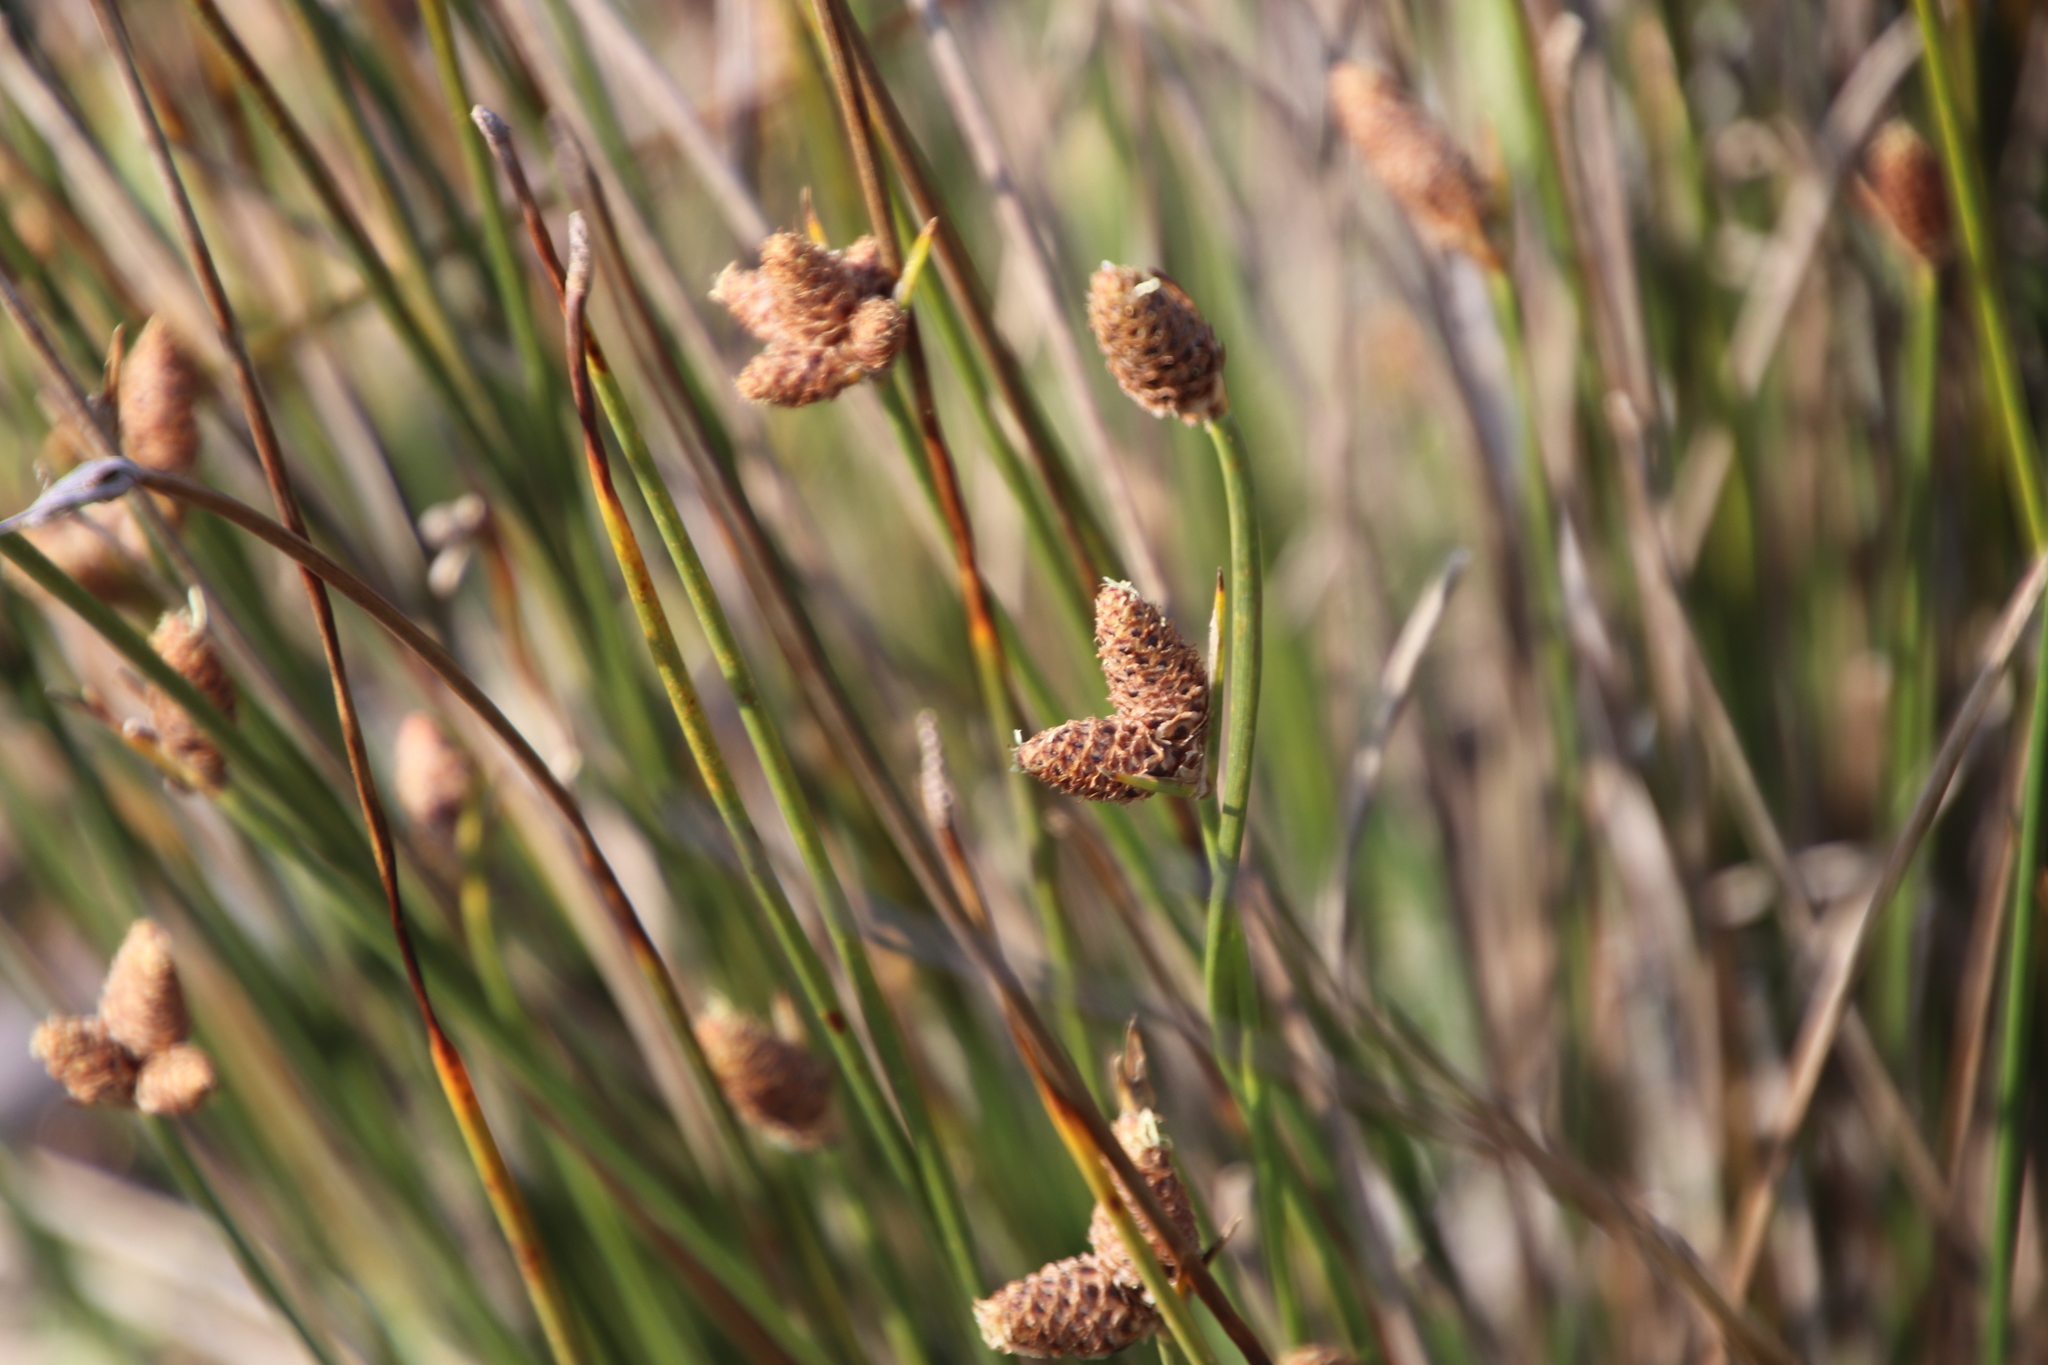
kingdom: Plantae
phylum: Tracheophyta
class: Liliopsida
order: Poales
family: Cyperaceae
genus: Hellmuthia
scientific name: Hellmuthia membranacea
